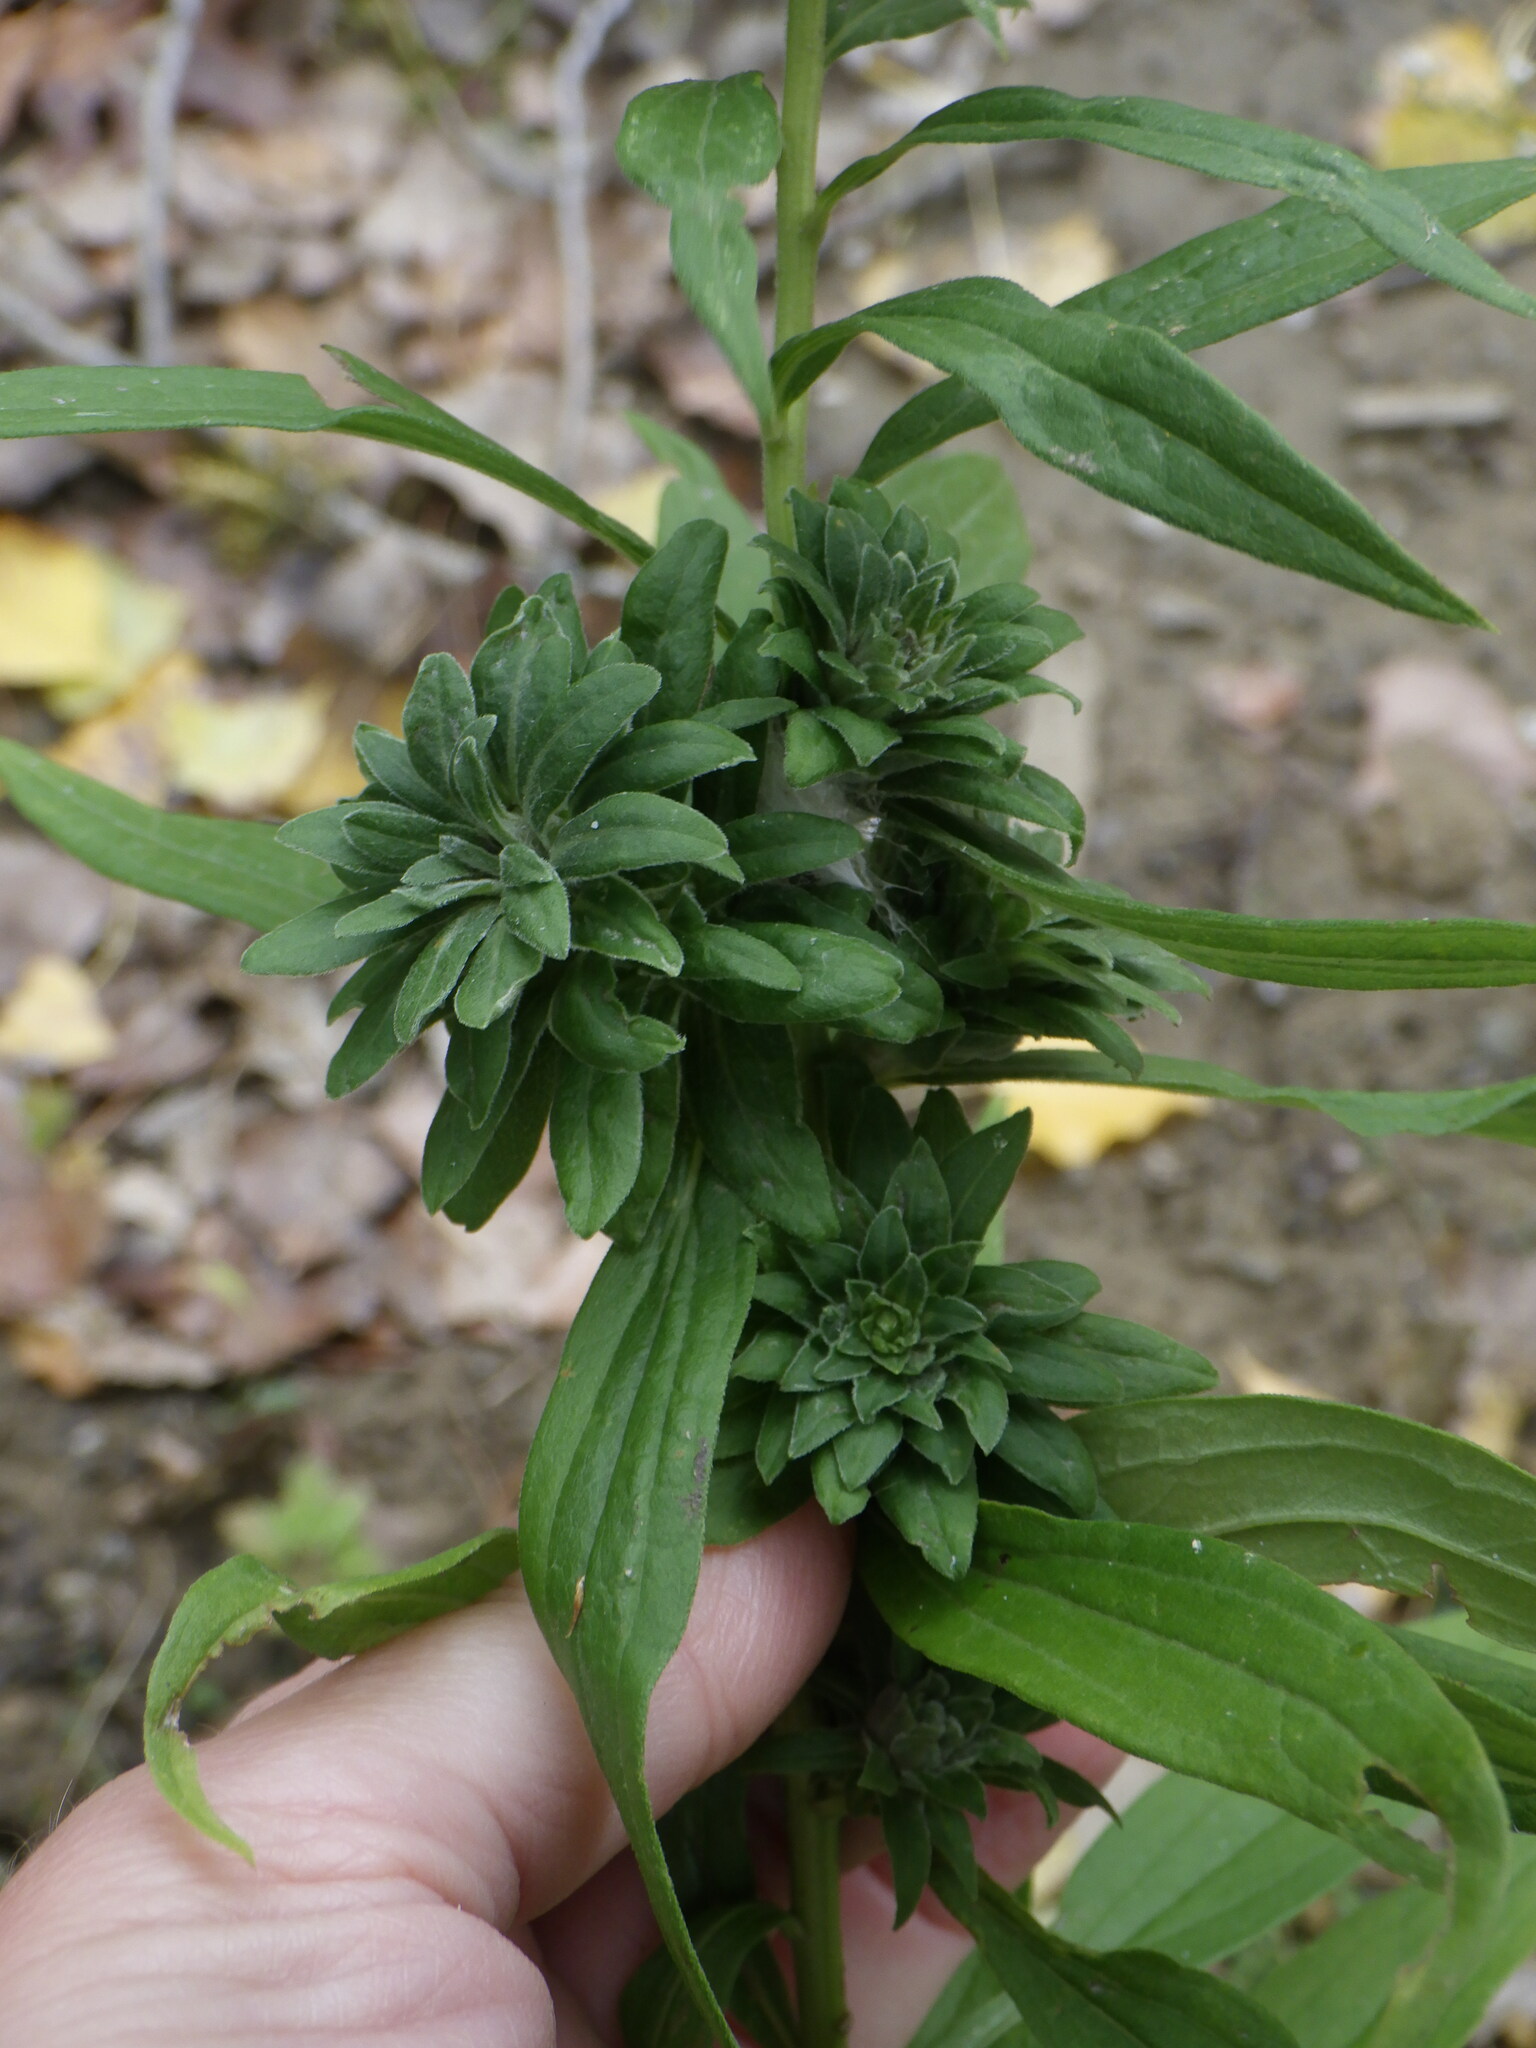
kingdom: Animalia
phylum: Arthropoda
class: Insecta
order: Diptera
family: Tephritidae
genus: Procecidochares
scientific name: Procecidochares atra
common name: Goldenrod brussels sprout gall fly
